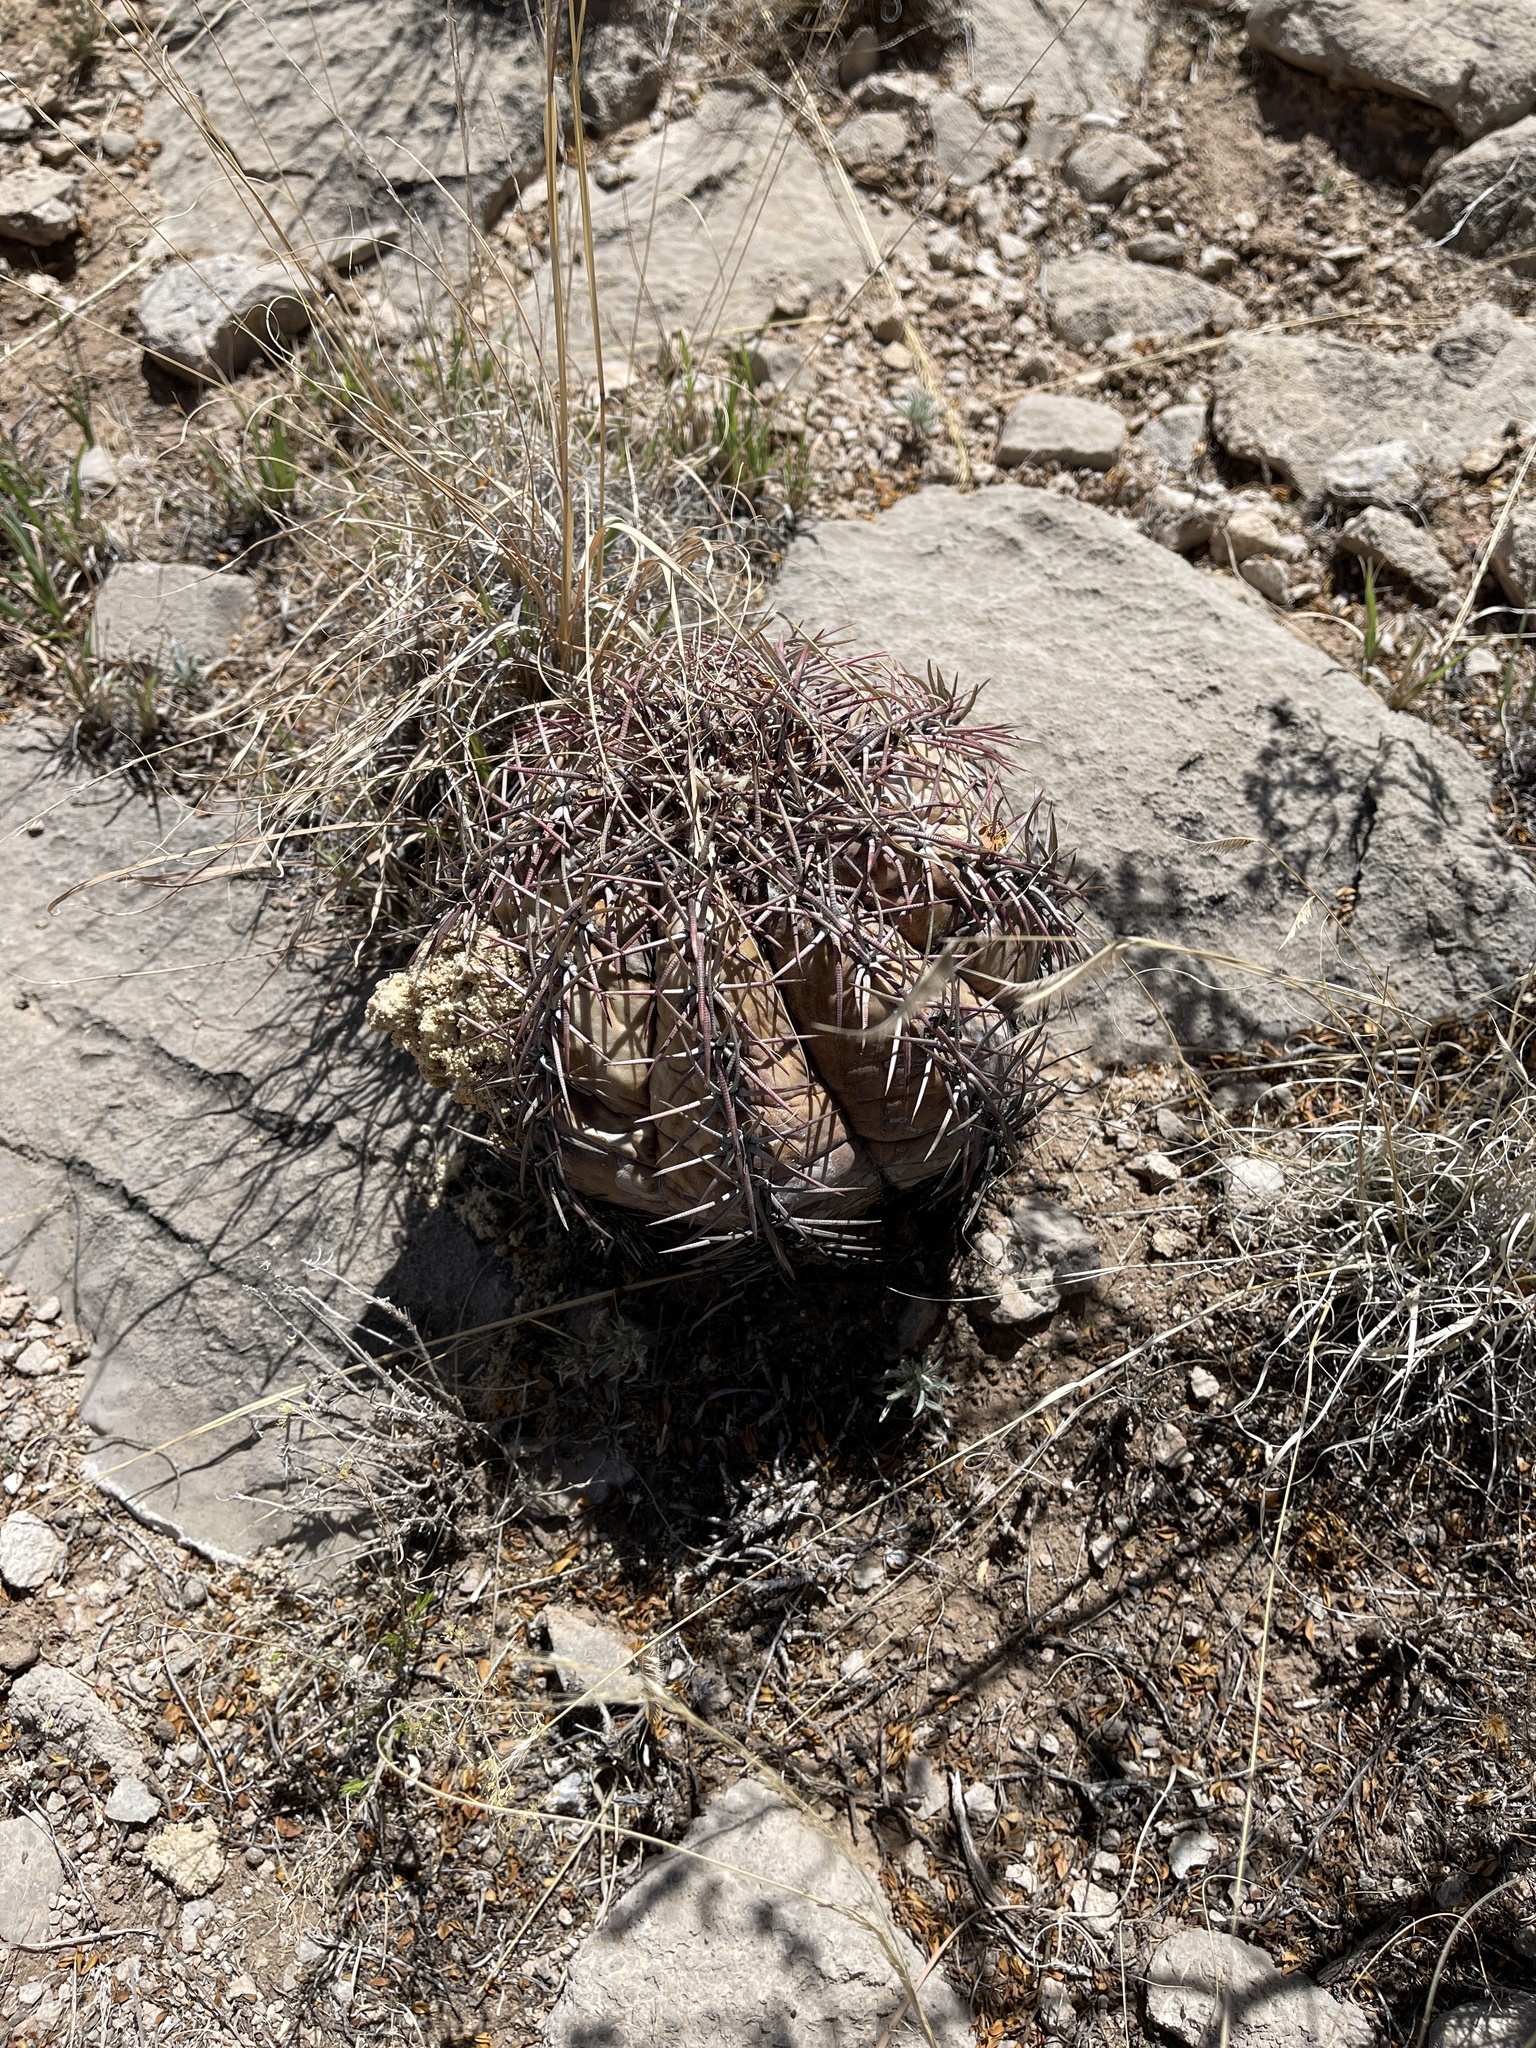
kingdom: Plantae
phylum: Tracheophyta
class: Magnoliopsida
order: Caryophyllales
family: Cactaceae
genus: Echinocactus
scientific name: Echinocactus horizonthalonius
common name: Devilshead
